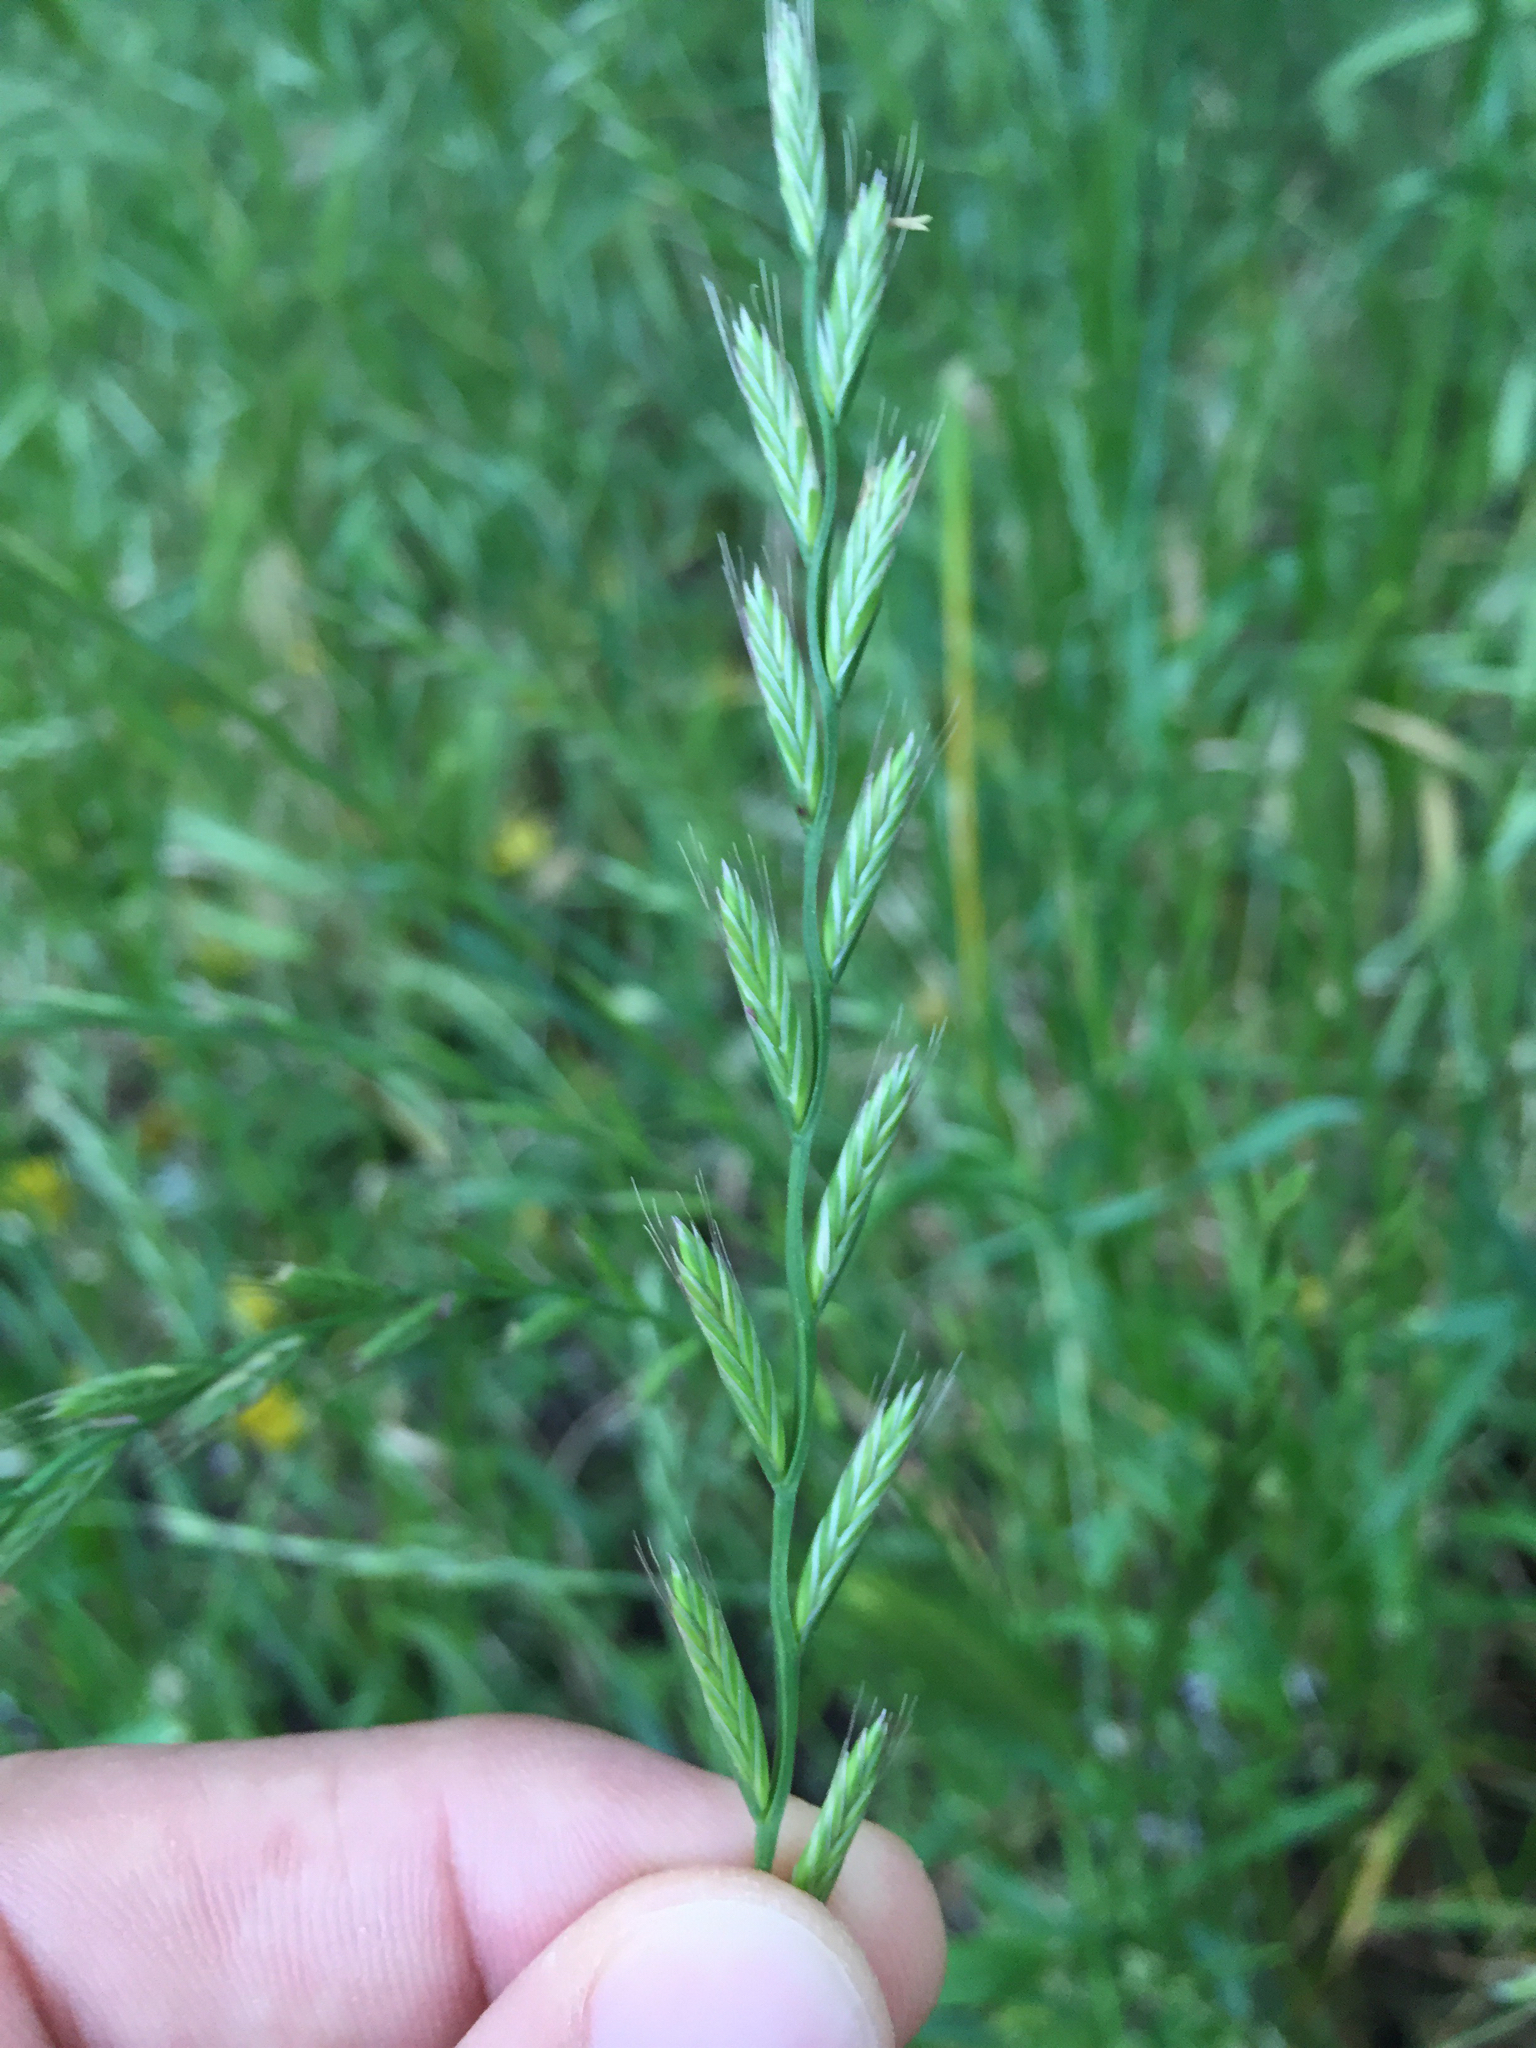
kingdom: Plantae
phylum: Tracheophyta
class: Liliopsida
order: Poales
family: Poaceae
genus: Lolium
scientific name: Lolium perenne
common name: Perennial ryegrass
